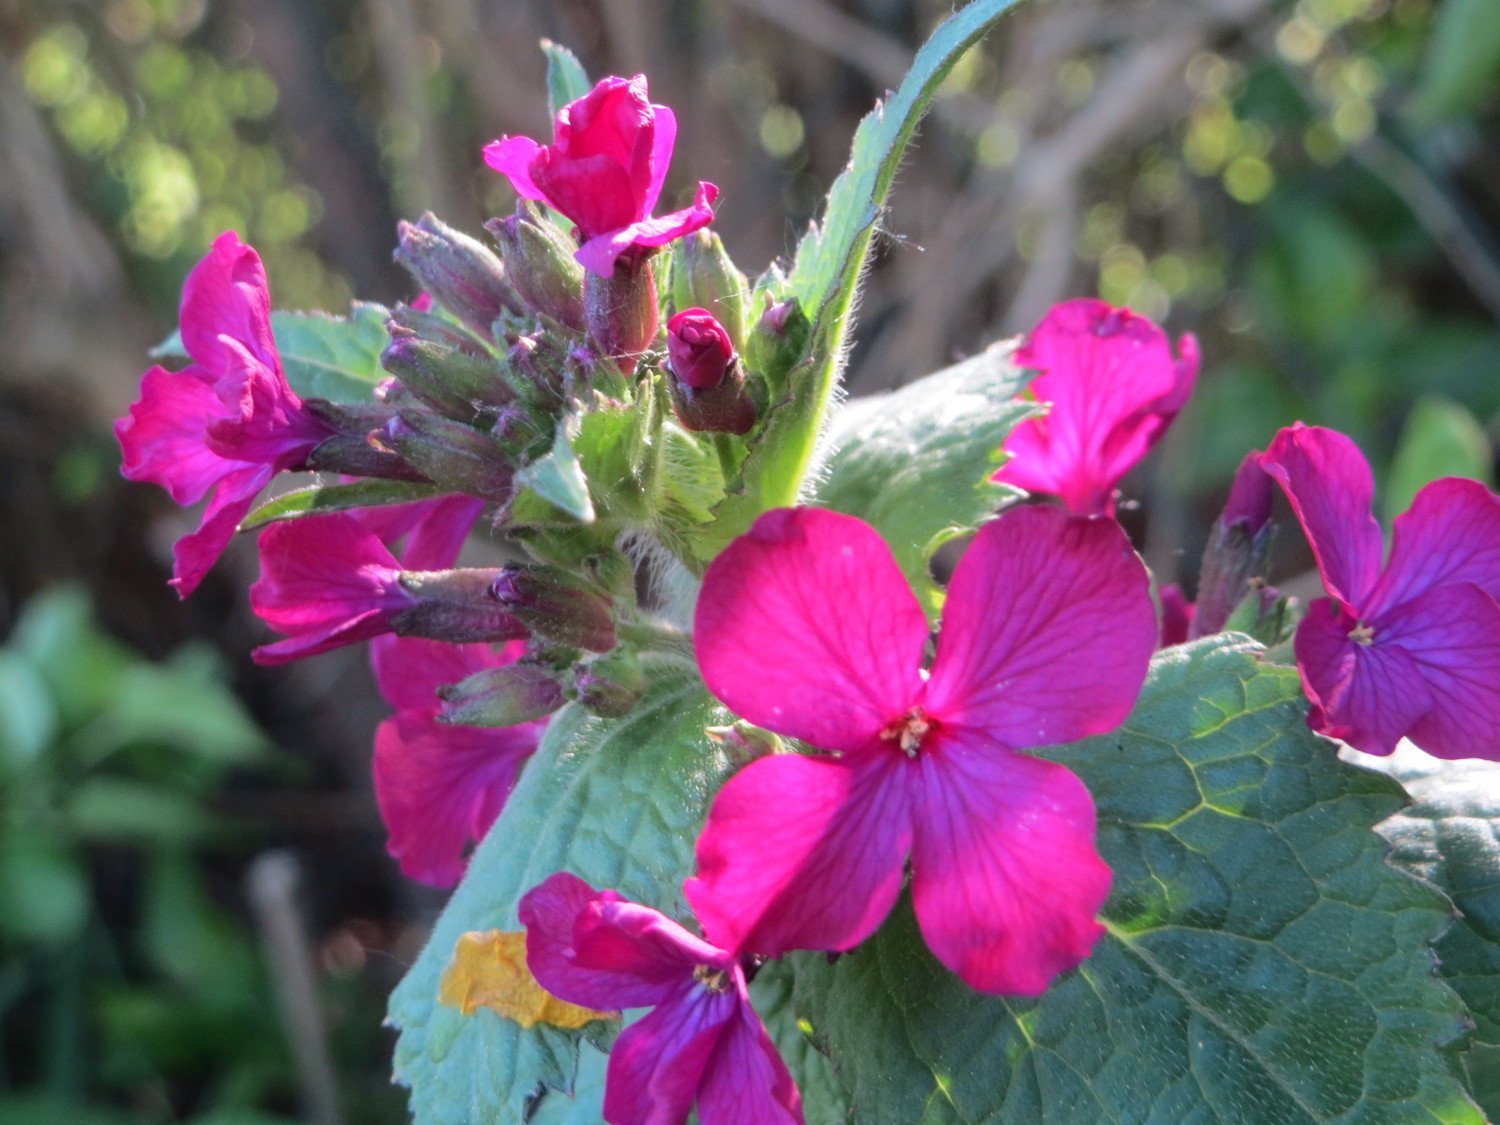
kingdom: Plantae
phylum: Tracheophyta
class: Magnoliopsida
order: Brassicales
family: Brassicaceae
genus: Lunaria
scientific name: Lunaria annua
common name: Honesty
